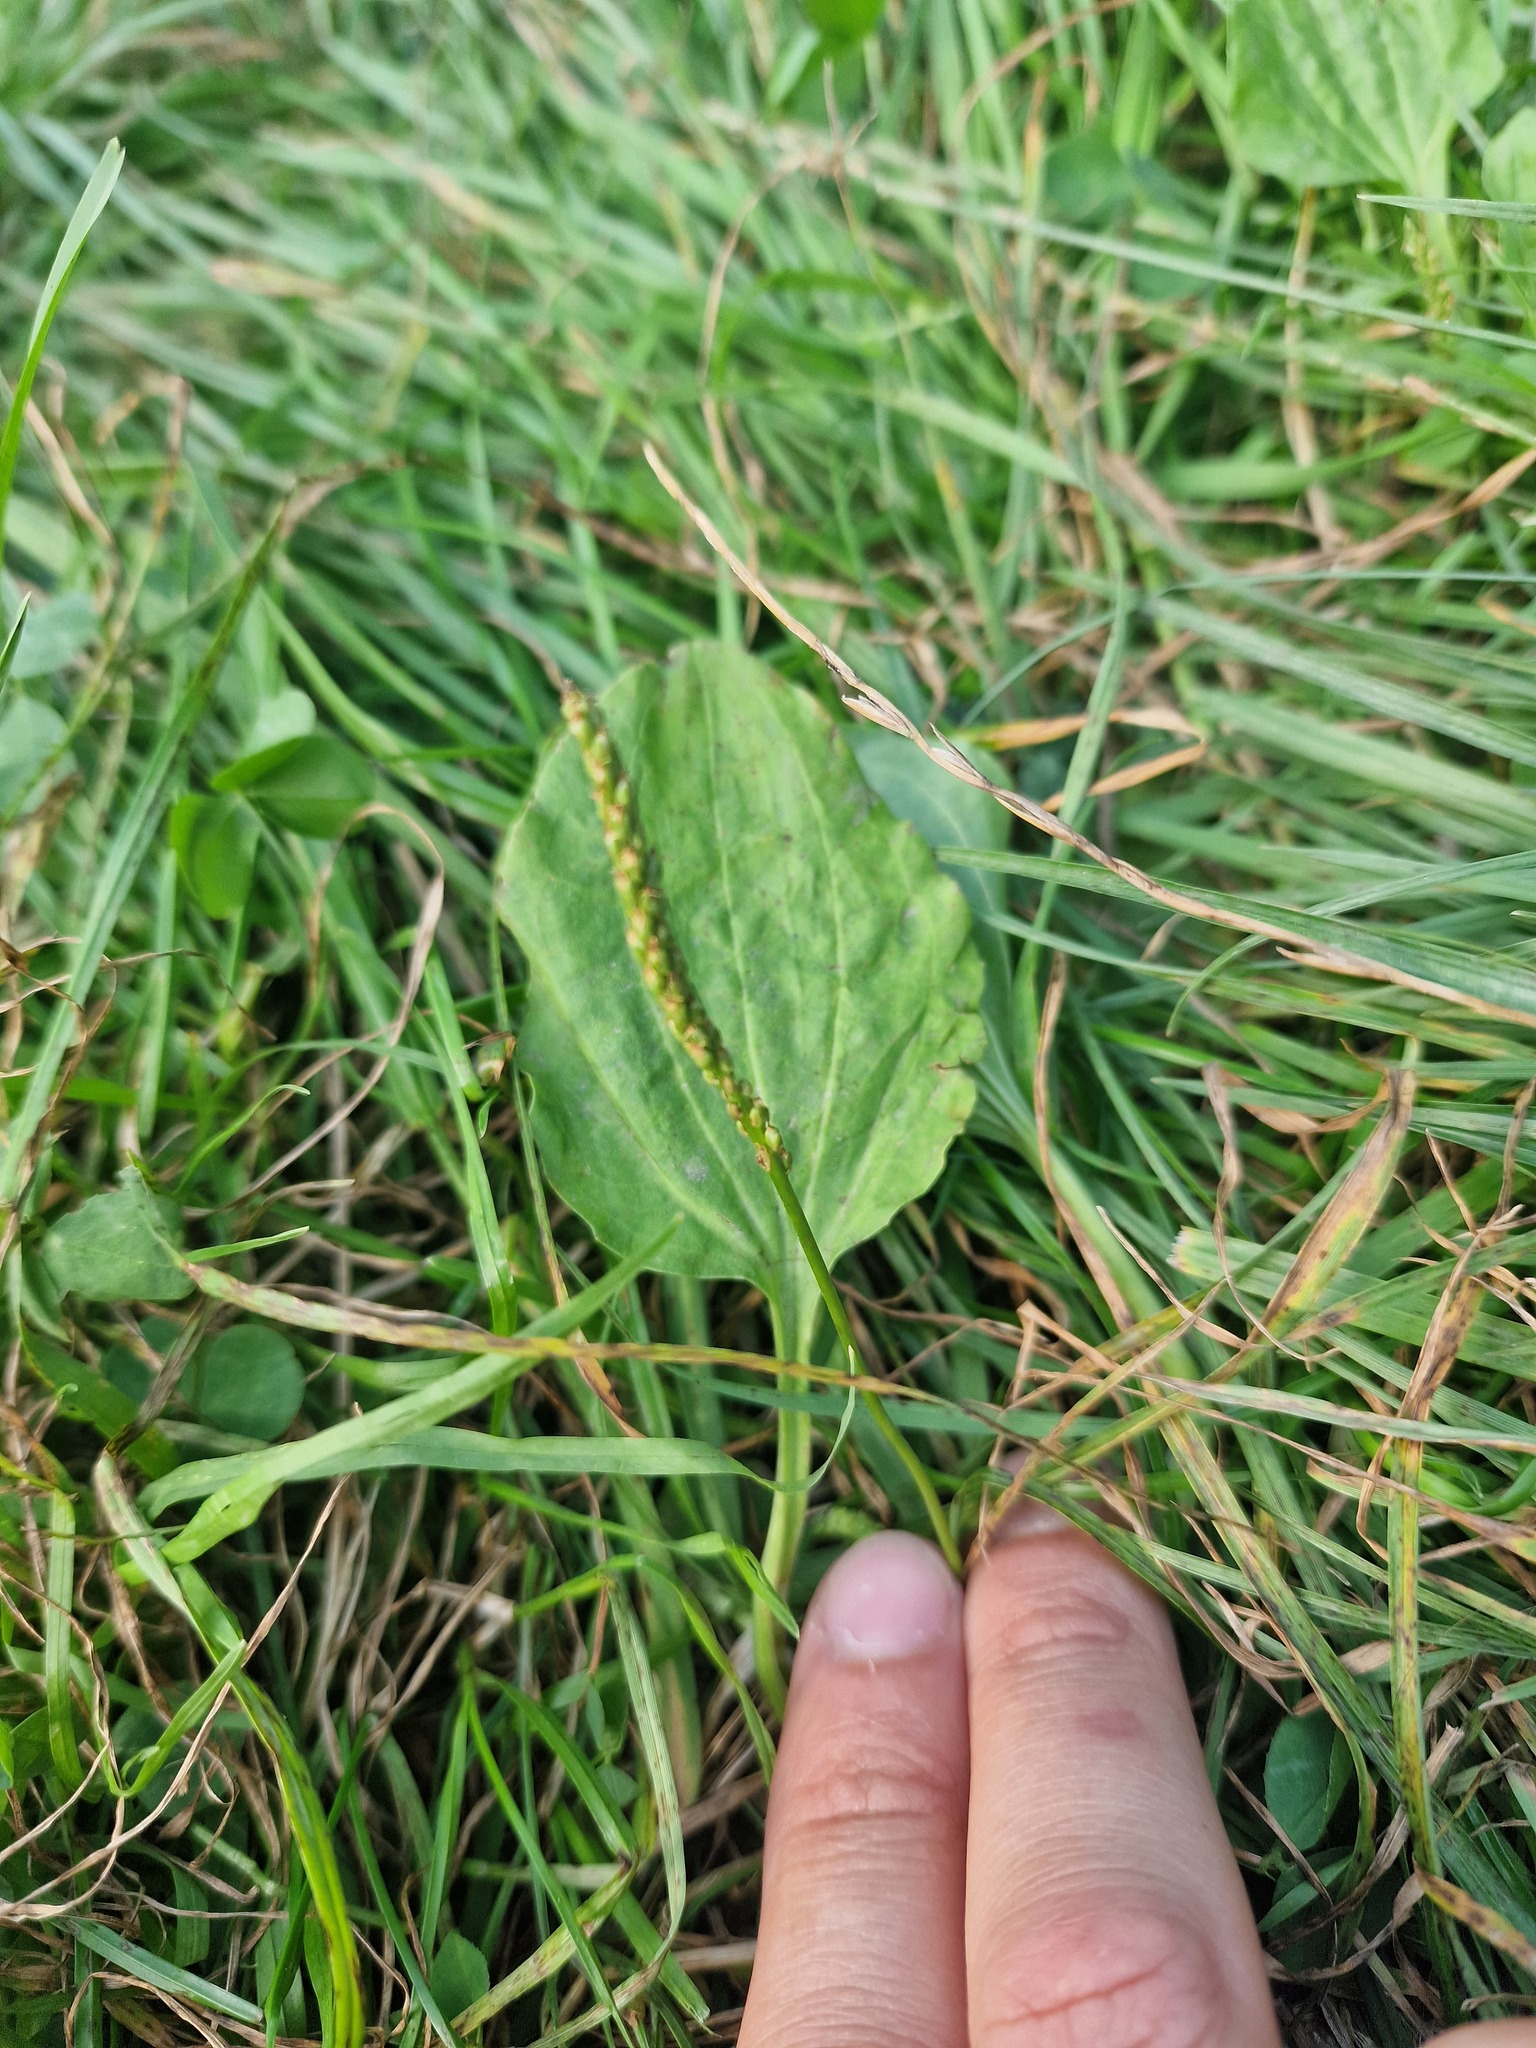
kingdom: Plantae
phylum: Tracheophyta
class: Magnoliopsida
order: Lamiales
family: Plantaginaceae
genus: Plantago
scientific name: Plantago major
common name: Common plantain
